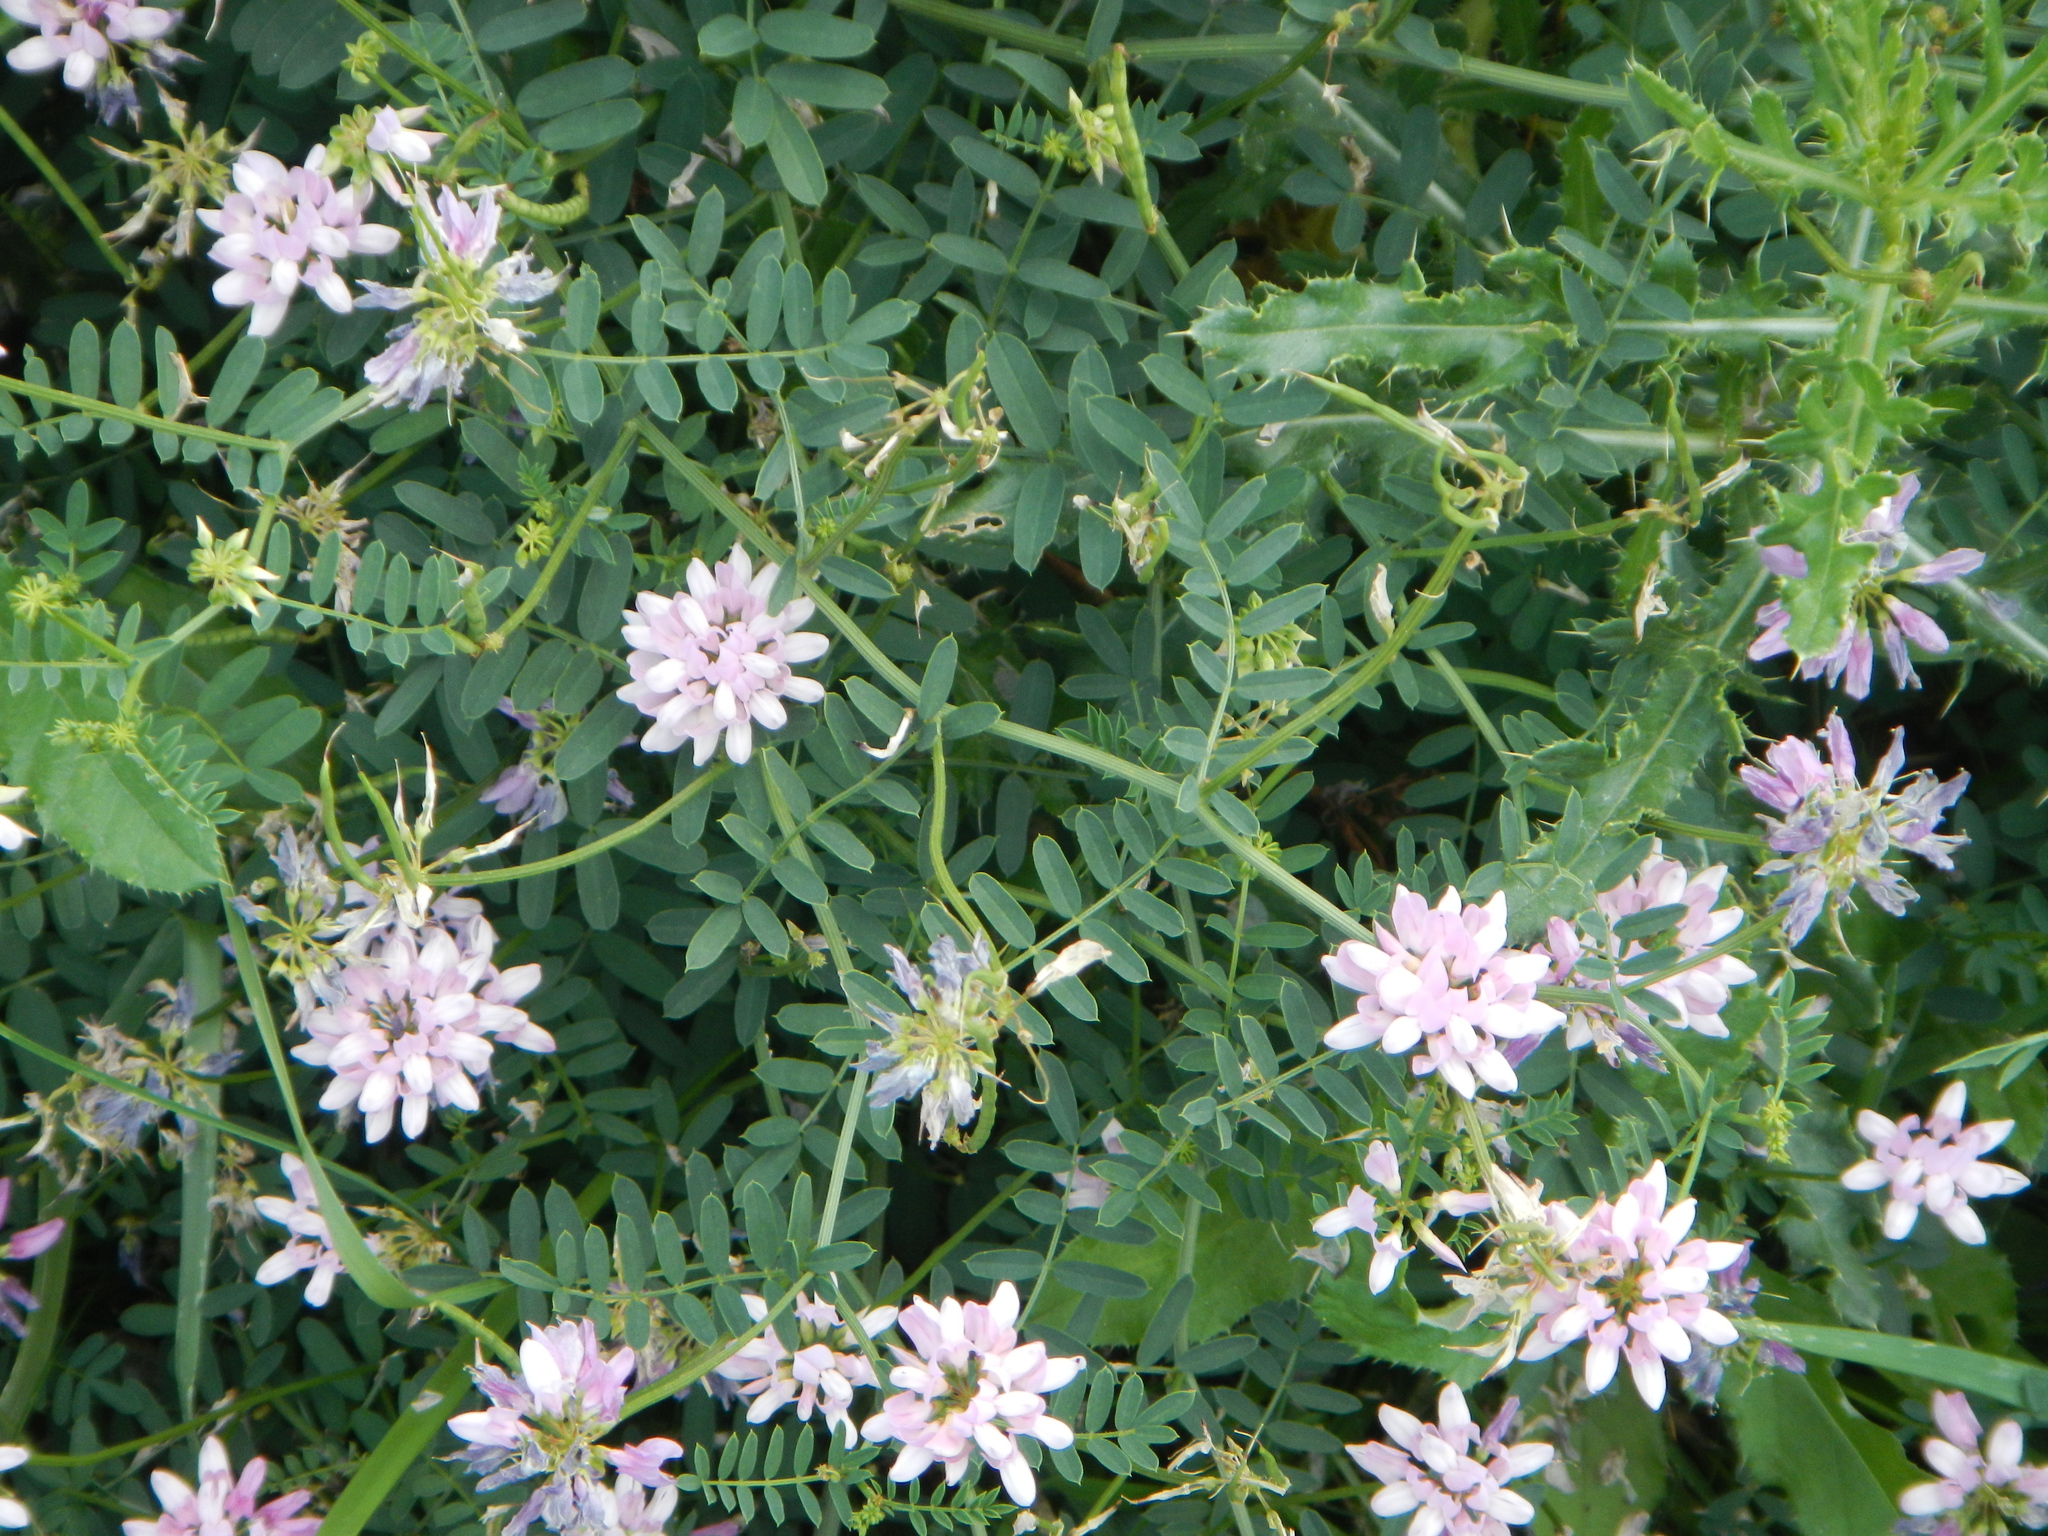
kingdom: Plantae
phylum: Tracheophyta
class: Magnoliopsida
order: Fabales
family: Fabaceae
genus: Coronilla
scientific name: Coronilla varia
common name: Crownvetch
